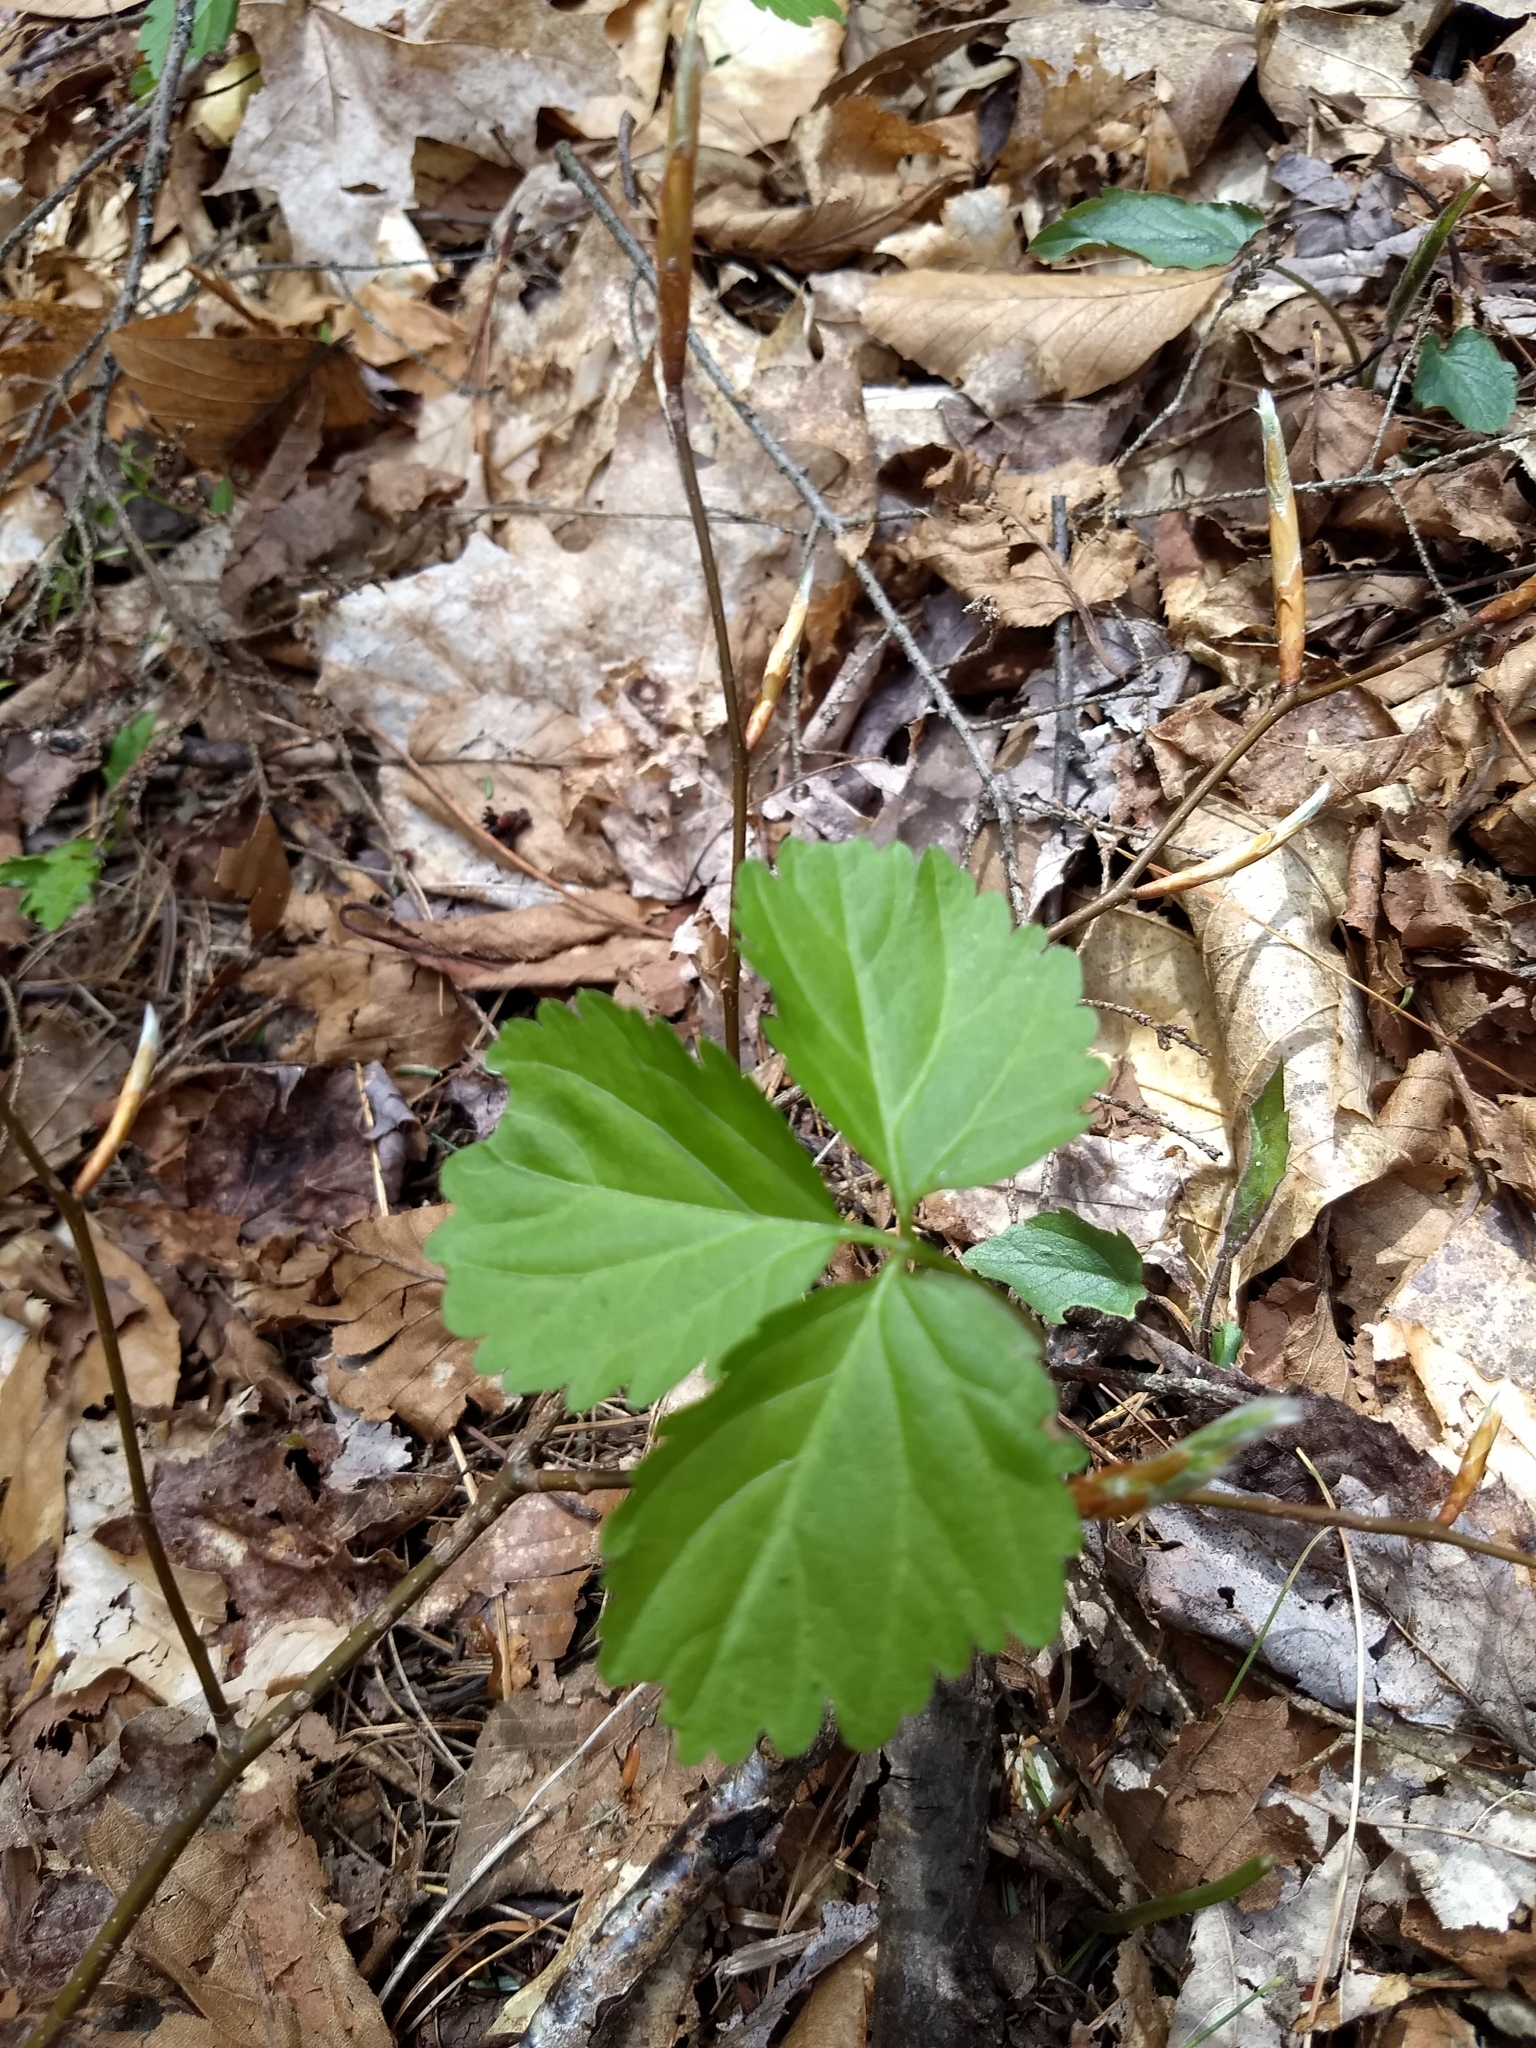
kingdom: Plantae
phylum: Tracheophyta
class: Magnoliopsida
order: Brassicales
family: Brassicaceae
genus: Cardamine
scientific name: Cardamine diphylla
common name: Broad-leaved toothwort
